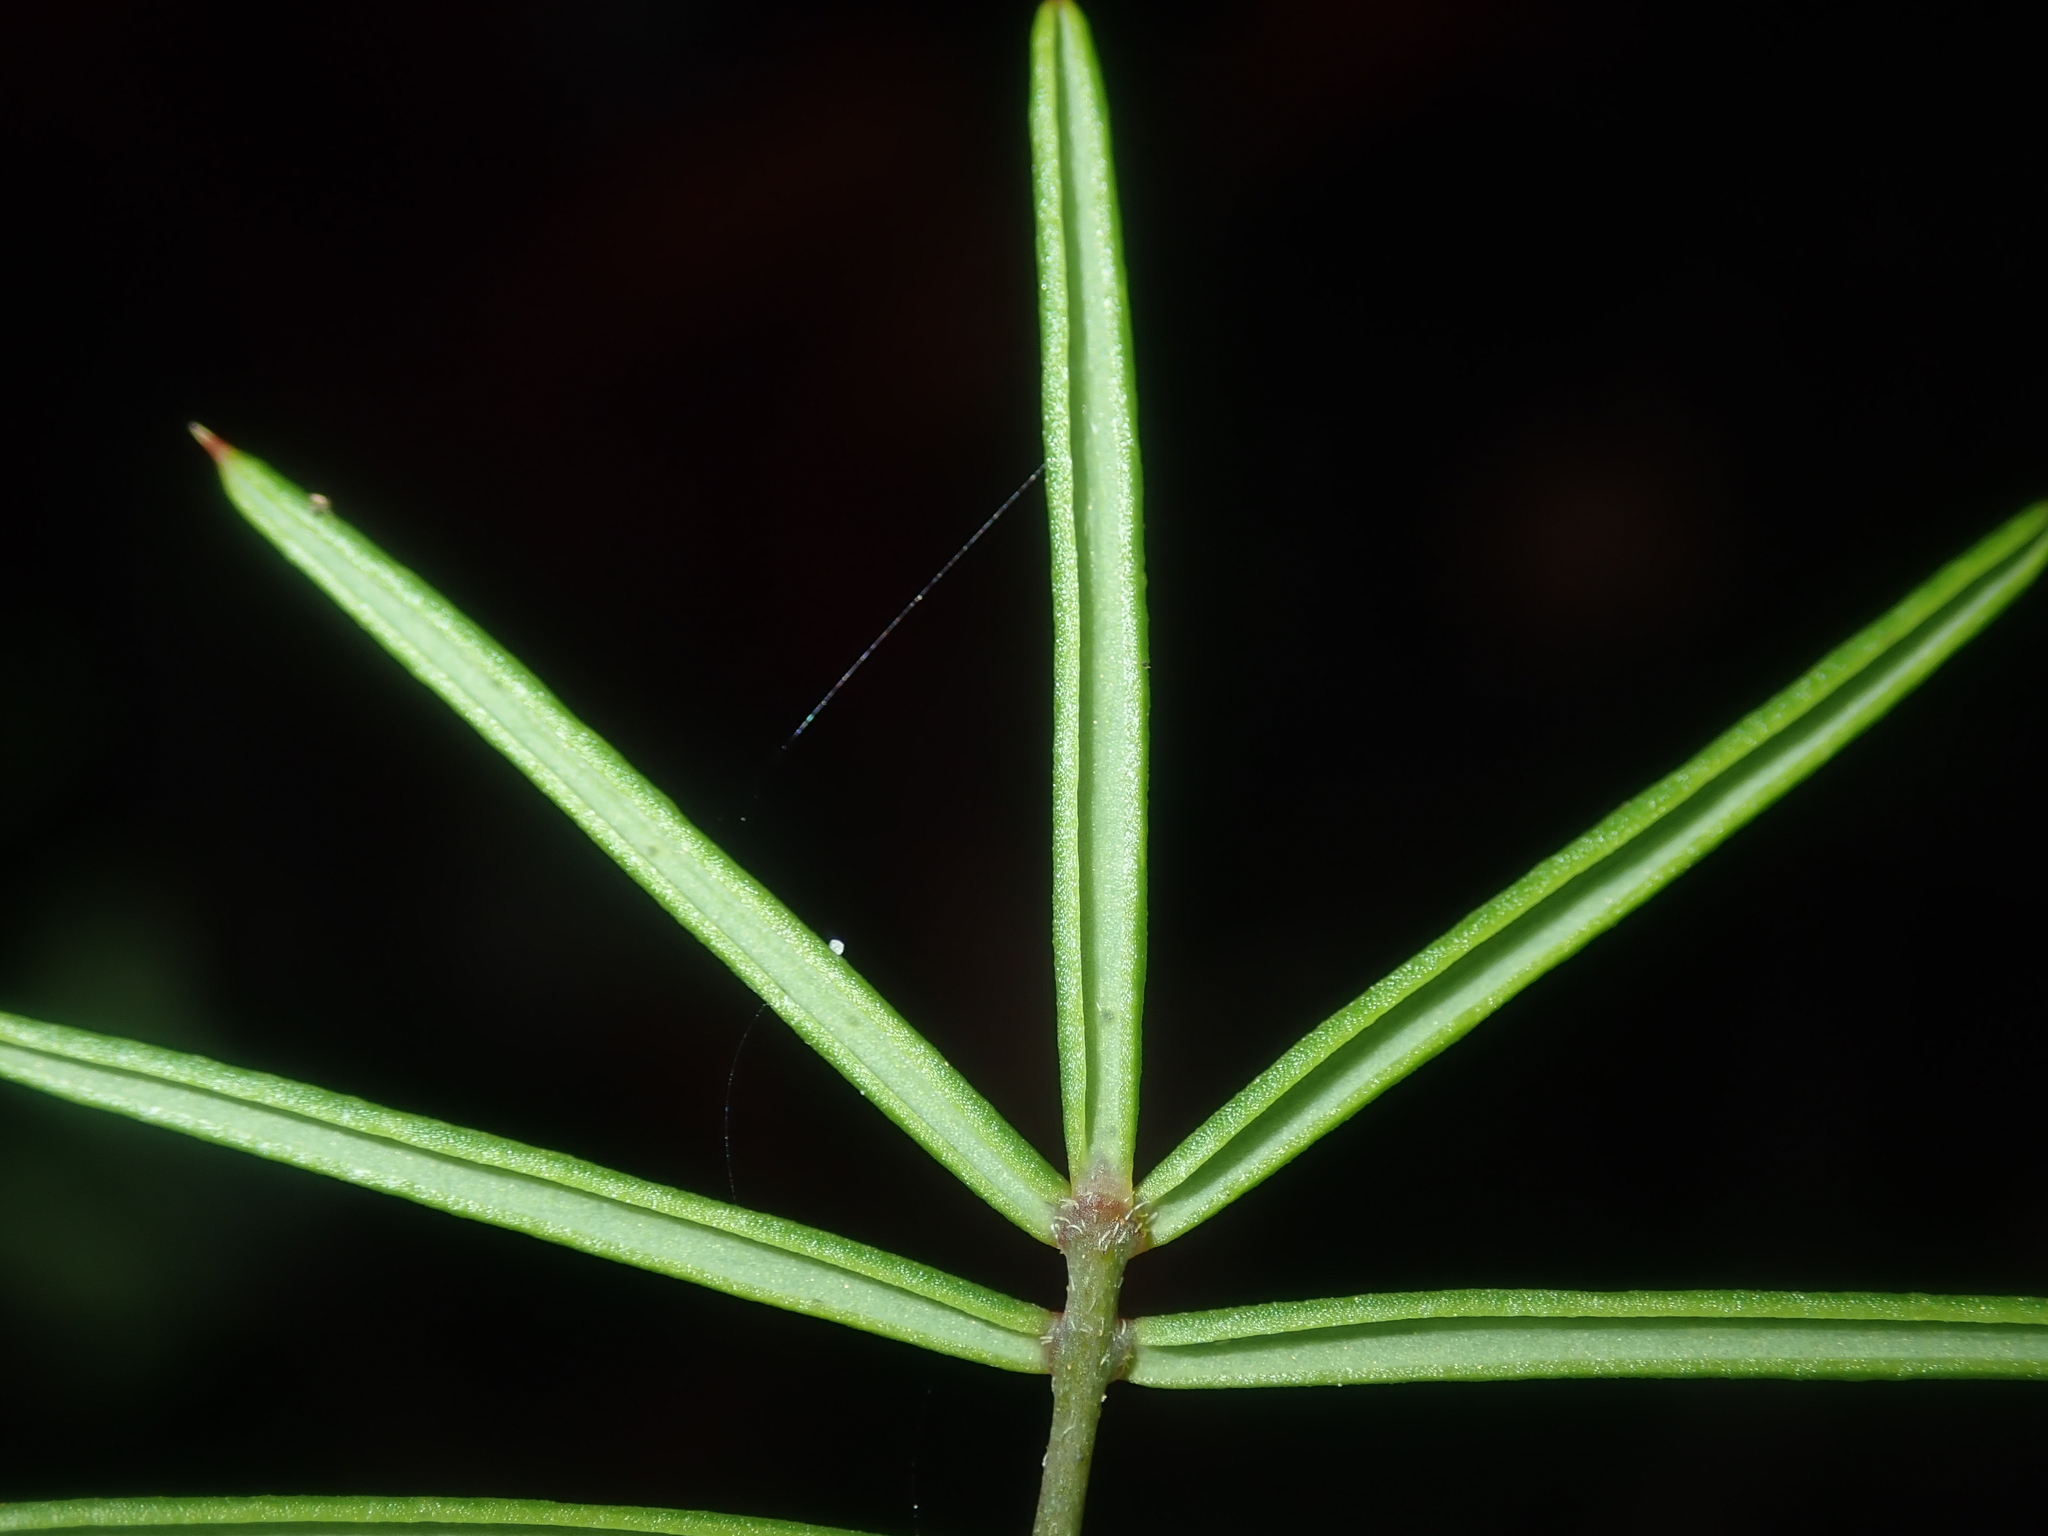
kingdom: Plantae
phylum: Tracheophyta
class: Magnoliopsida
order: Fabales
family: Fabaceae
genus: Gompholobium
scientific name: Gompholobium pungens
